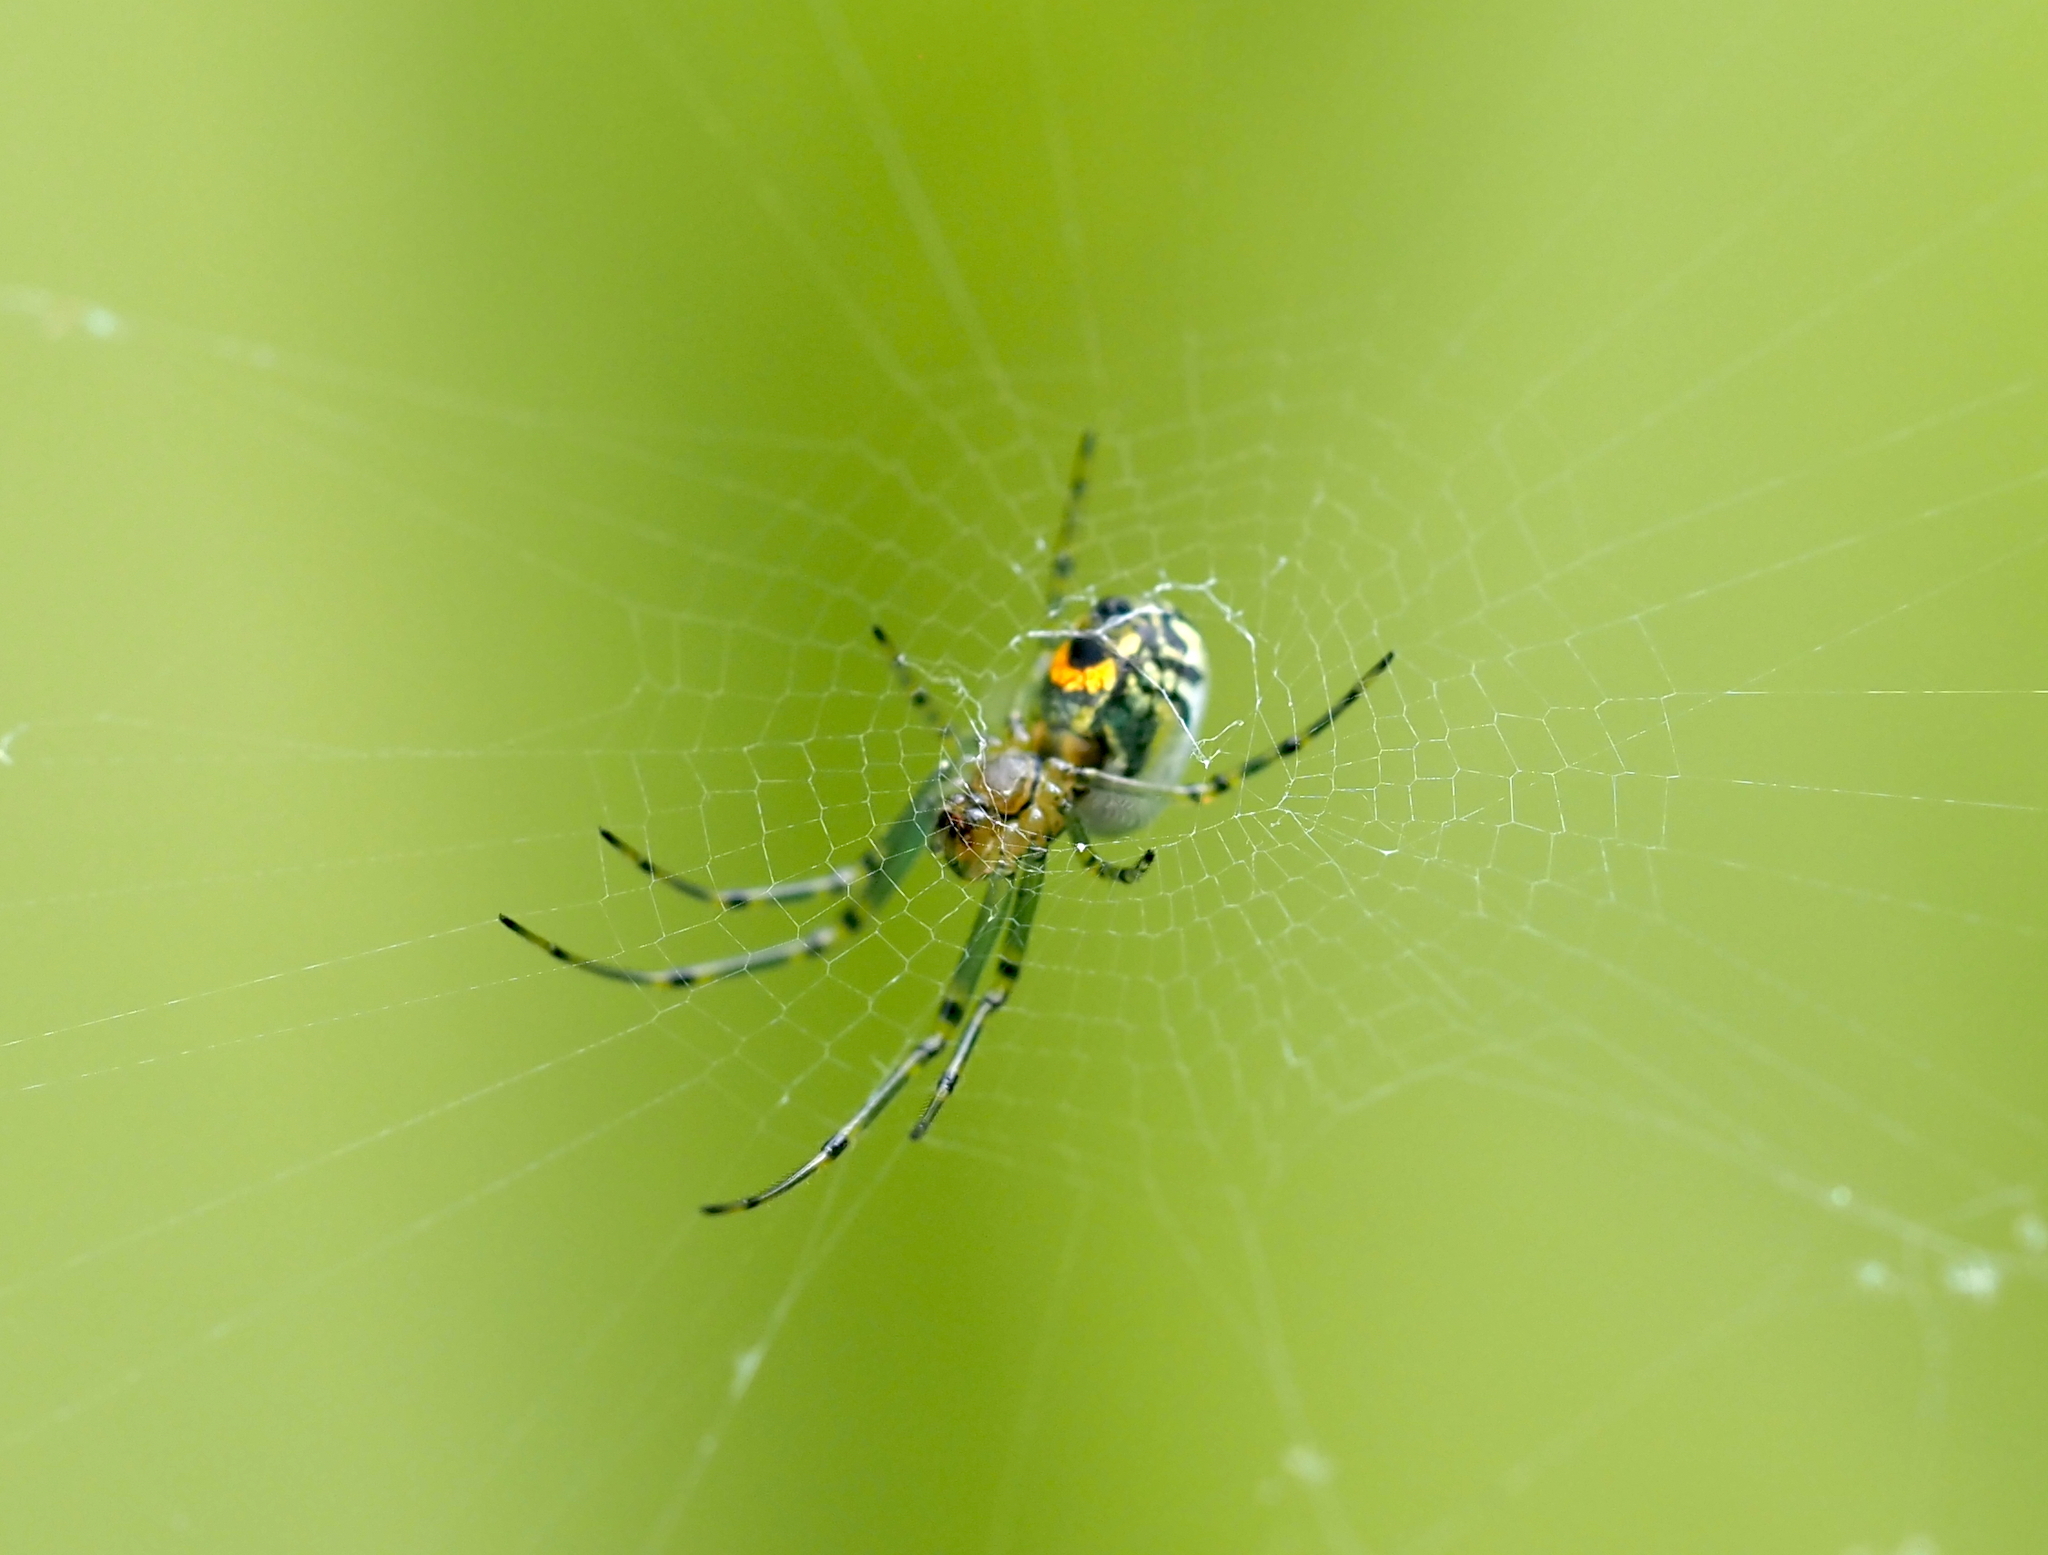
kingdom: Animalia
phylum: Arthropoda
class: Arachnida
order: Araneae
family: Tetragnathidae
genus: Leucauge
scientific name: Leucauge venusta
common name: Longjawed orb weavers
